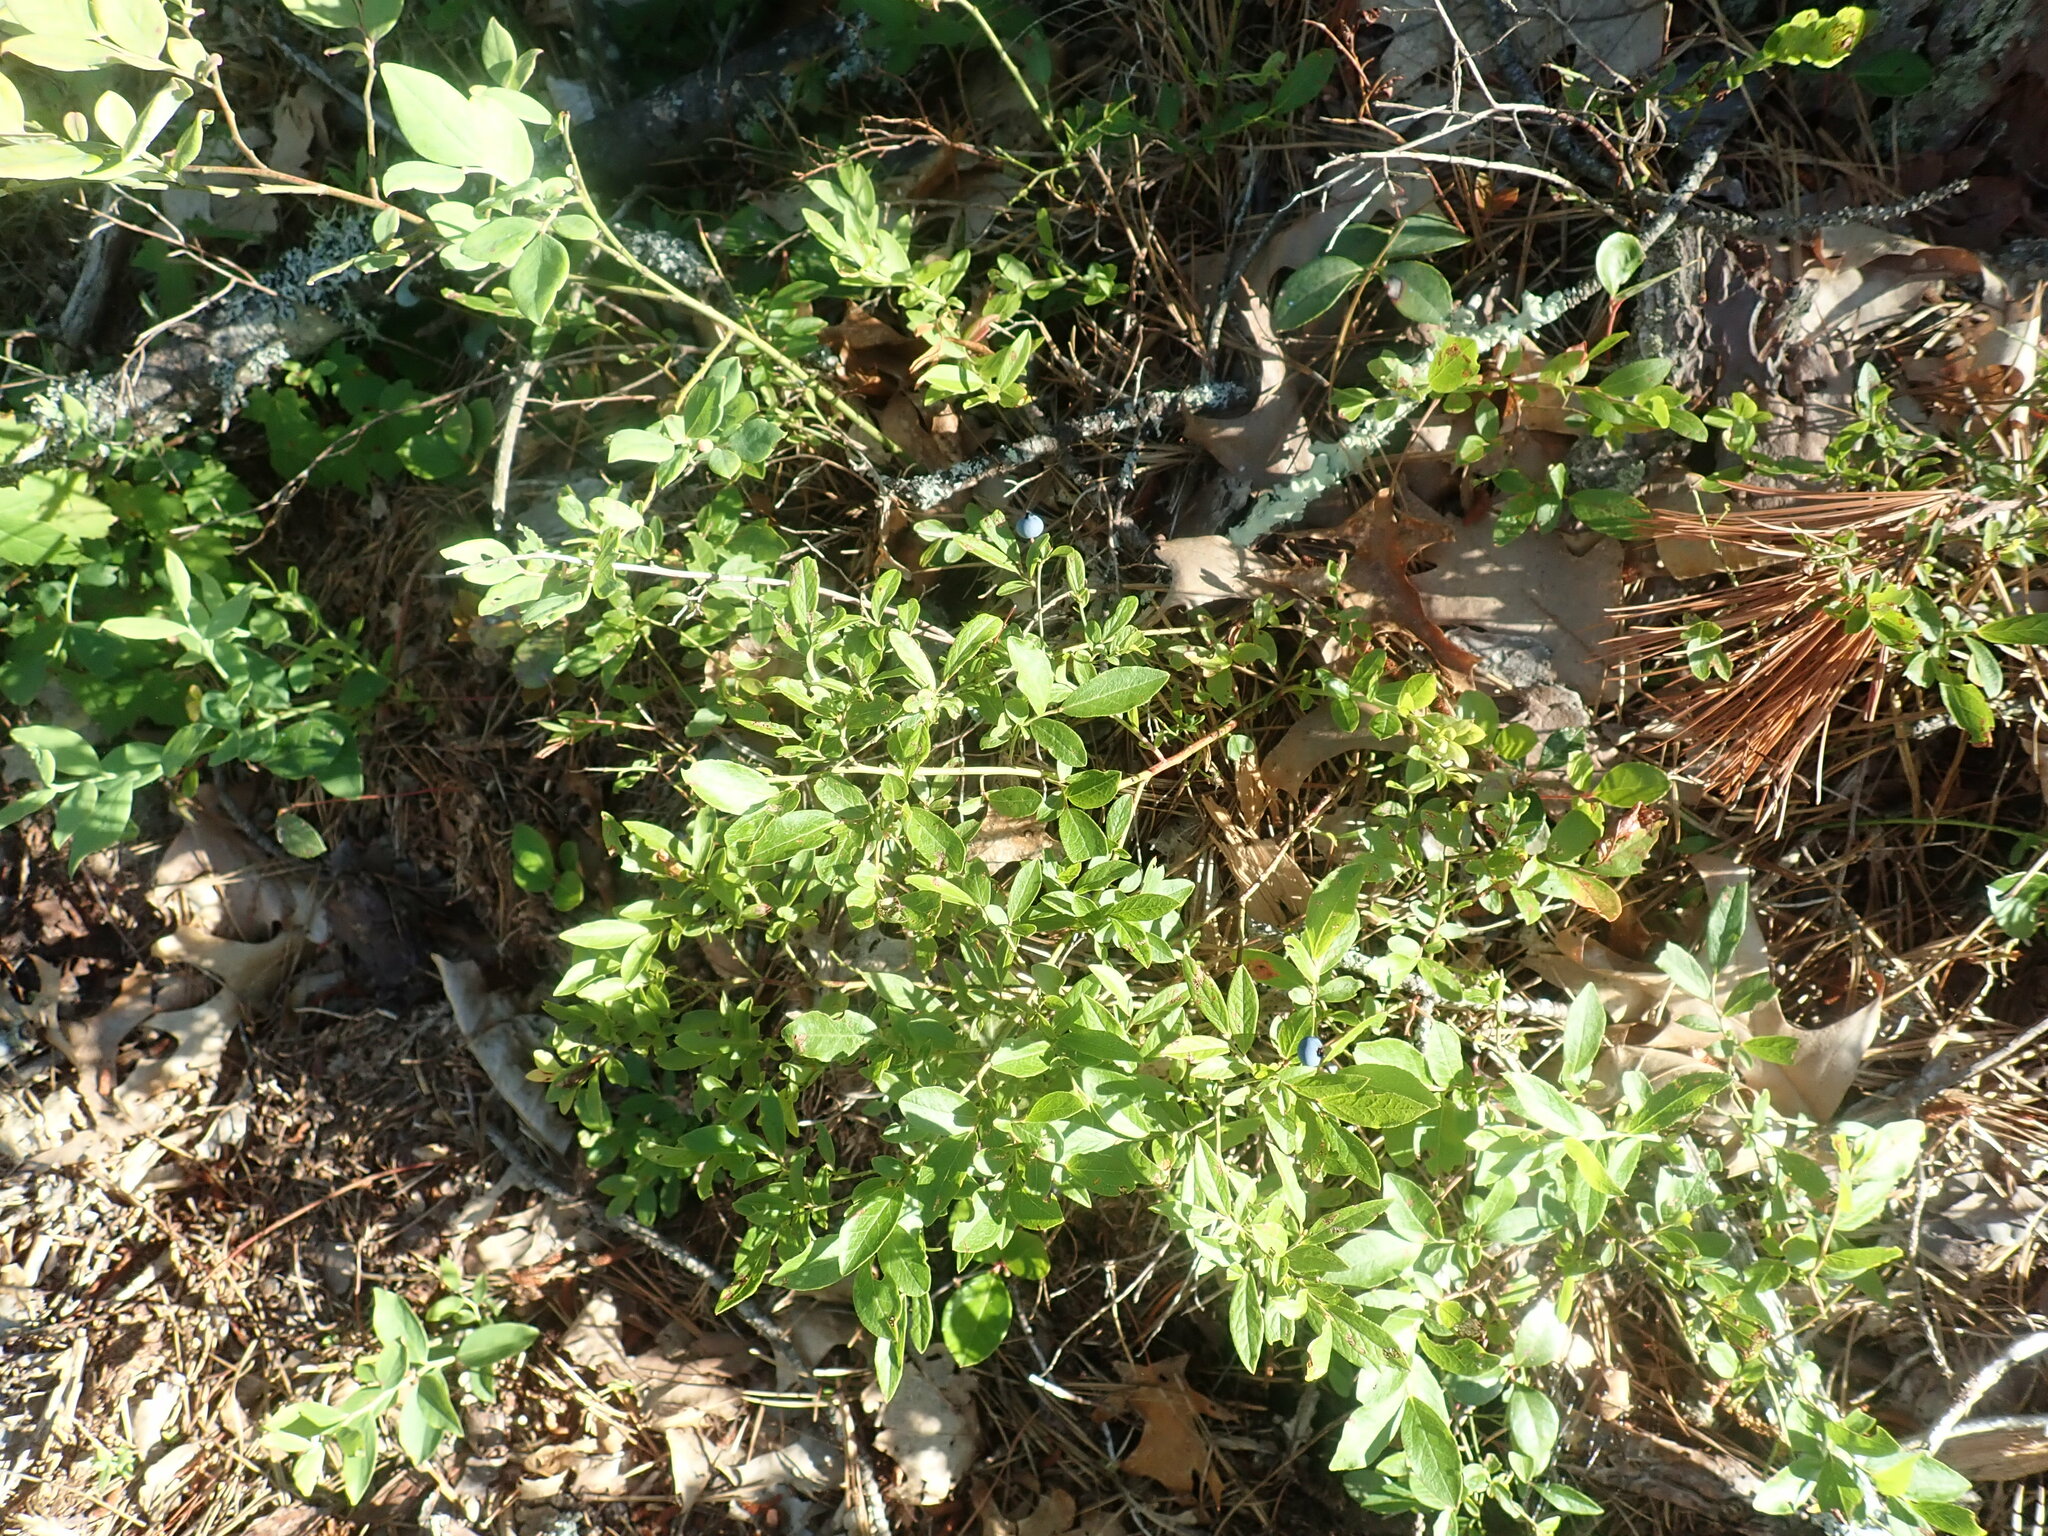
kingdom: Plantae
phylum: Tracheophyta
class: Magnoliopsida
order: Ericales
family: Ericaceae
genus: Vaccinium
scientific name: Vaccinium angustifolium
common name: Early lowbush blueberry
